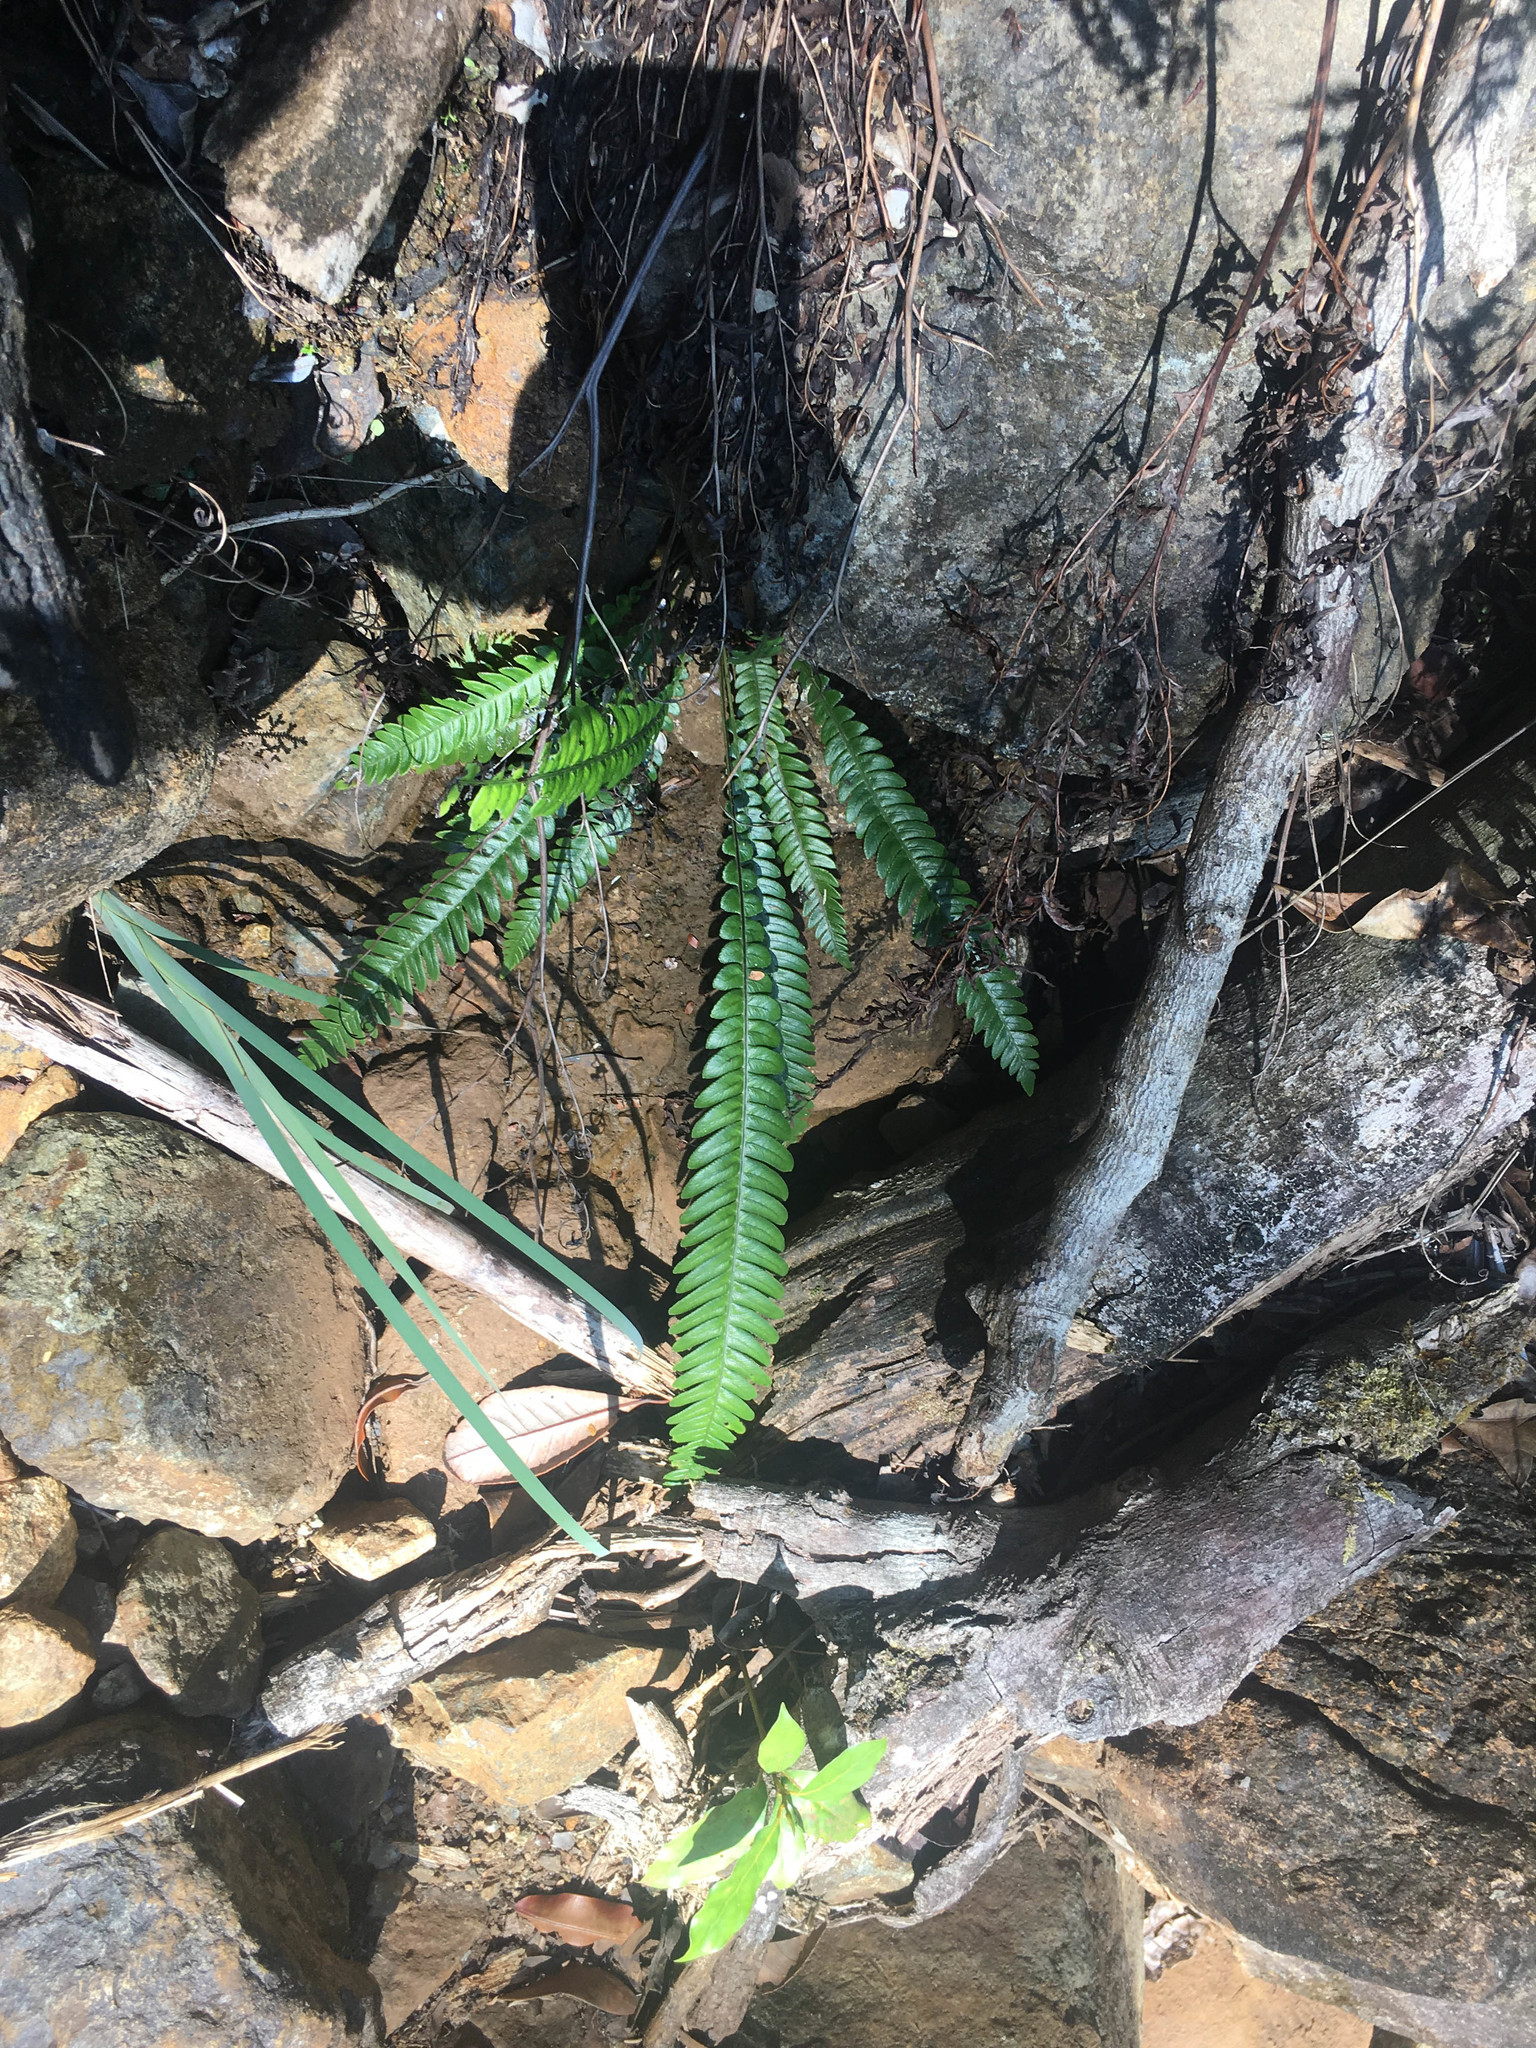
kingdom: Plantae
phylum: Tracheophyta
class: Polypodiopsida
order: Polypodiales
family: Blechnaceae
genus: Oceaniopteris
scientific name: Oceaniopteris obtusata
